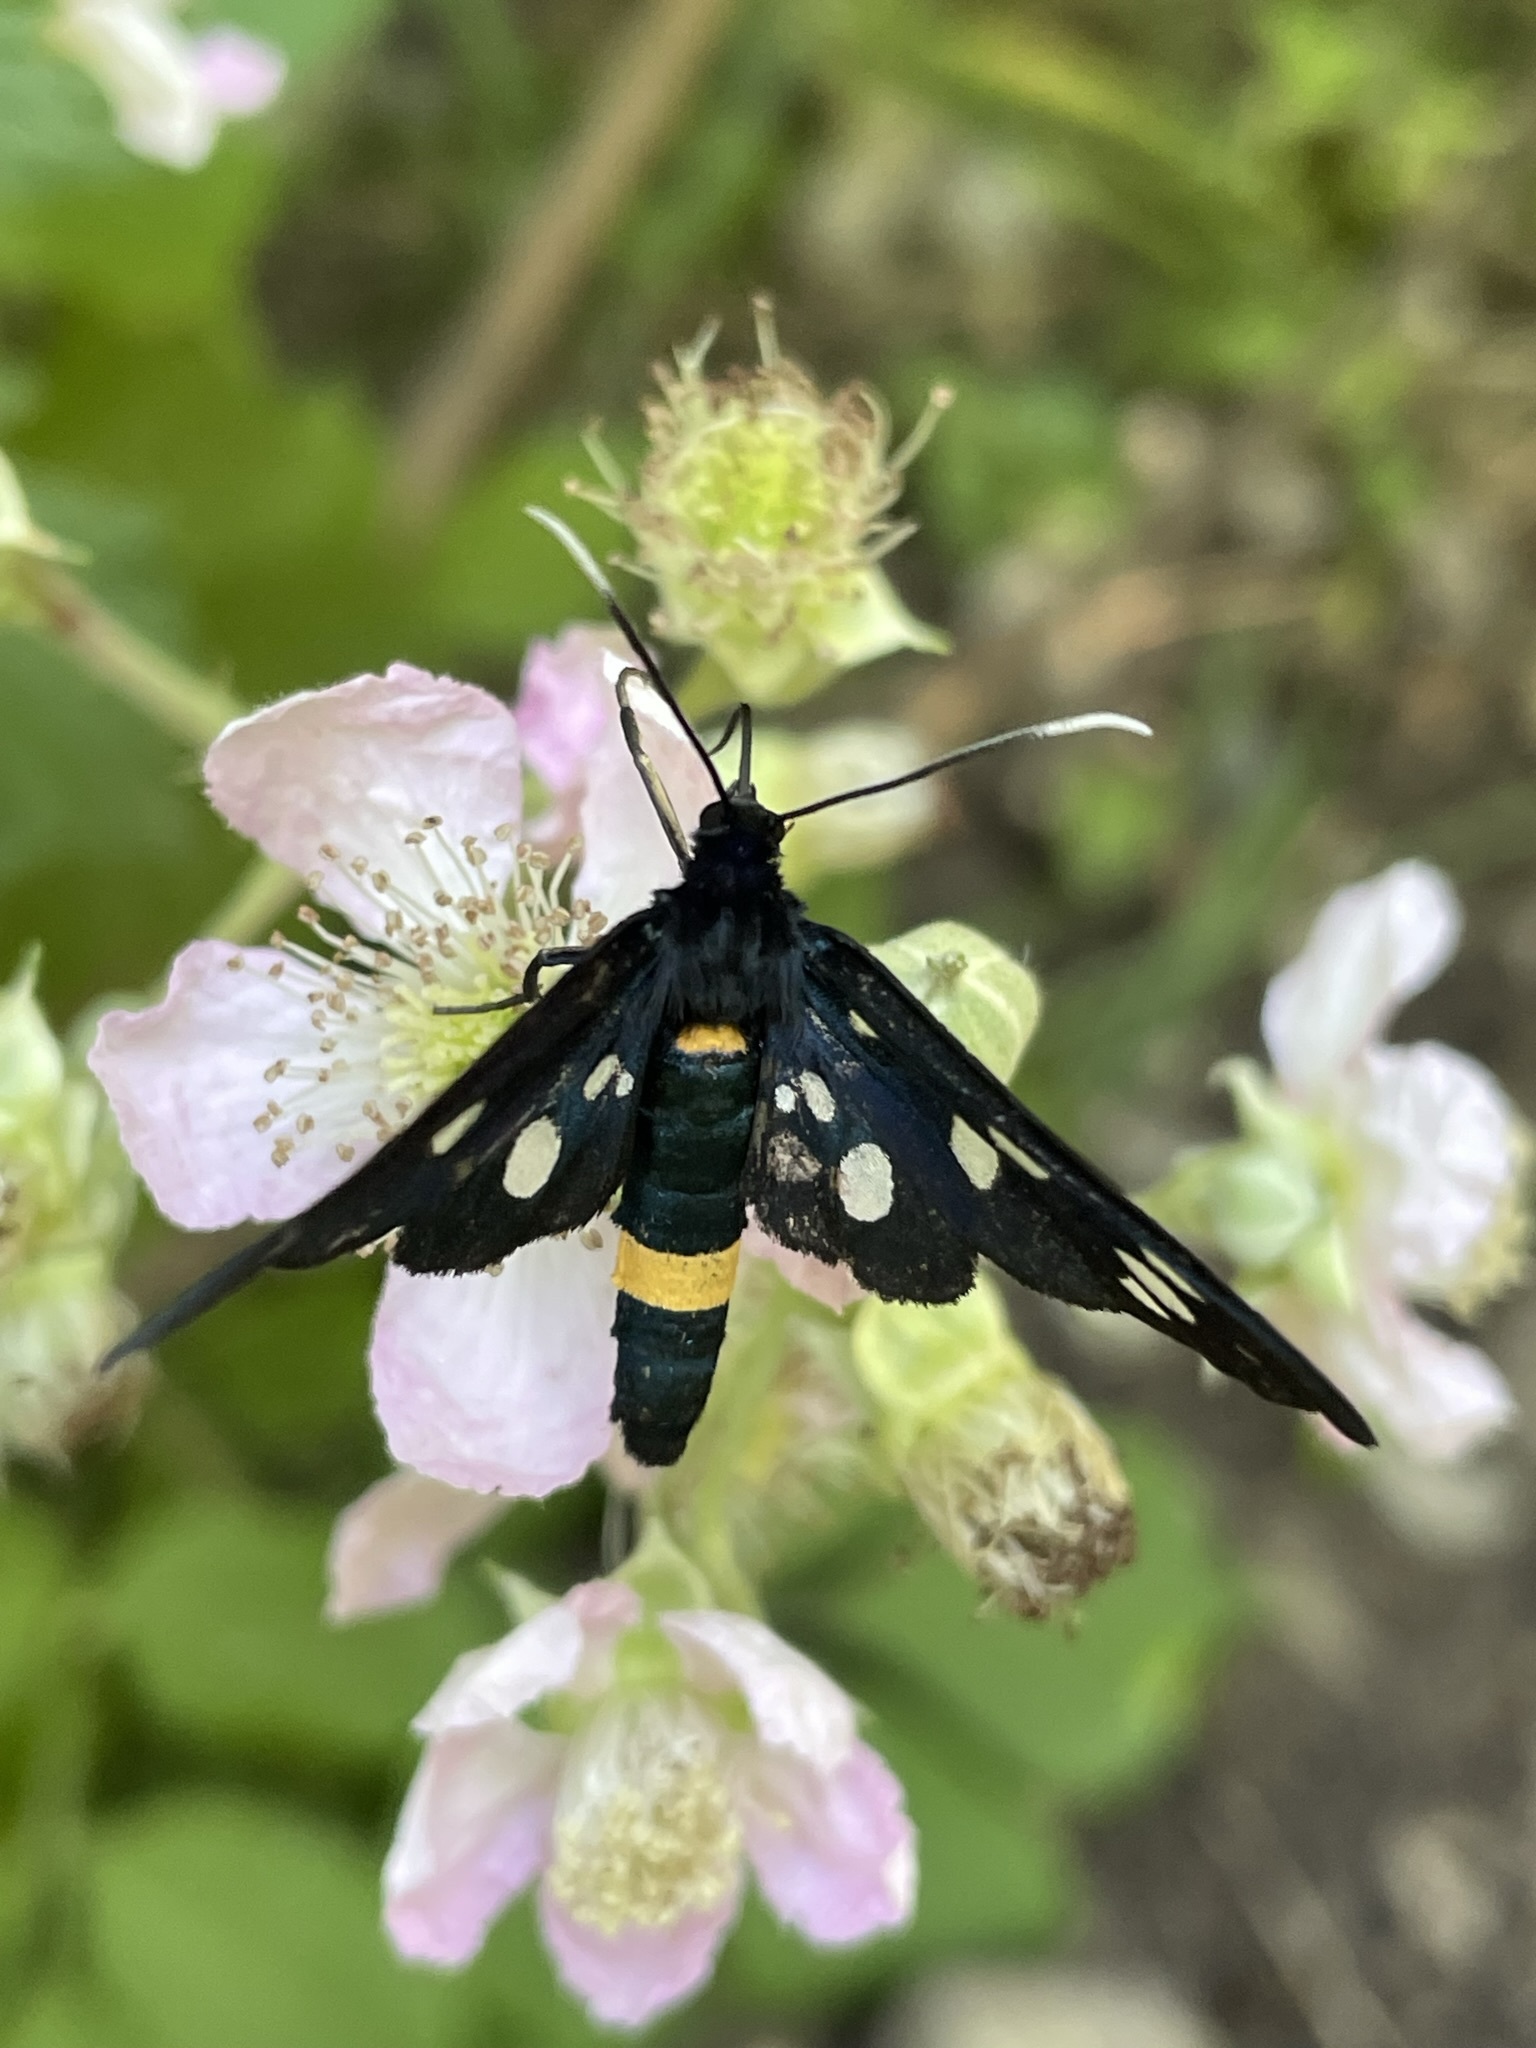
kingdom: Animalia
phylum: Arthropoda
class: Insecta
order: Lepidoptera
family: Erebidae
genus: Amata
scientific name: Amata phegea
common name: Nine-spotted
